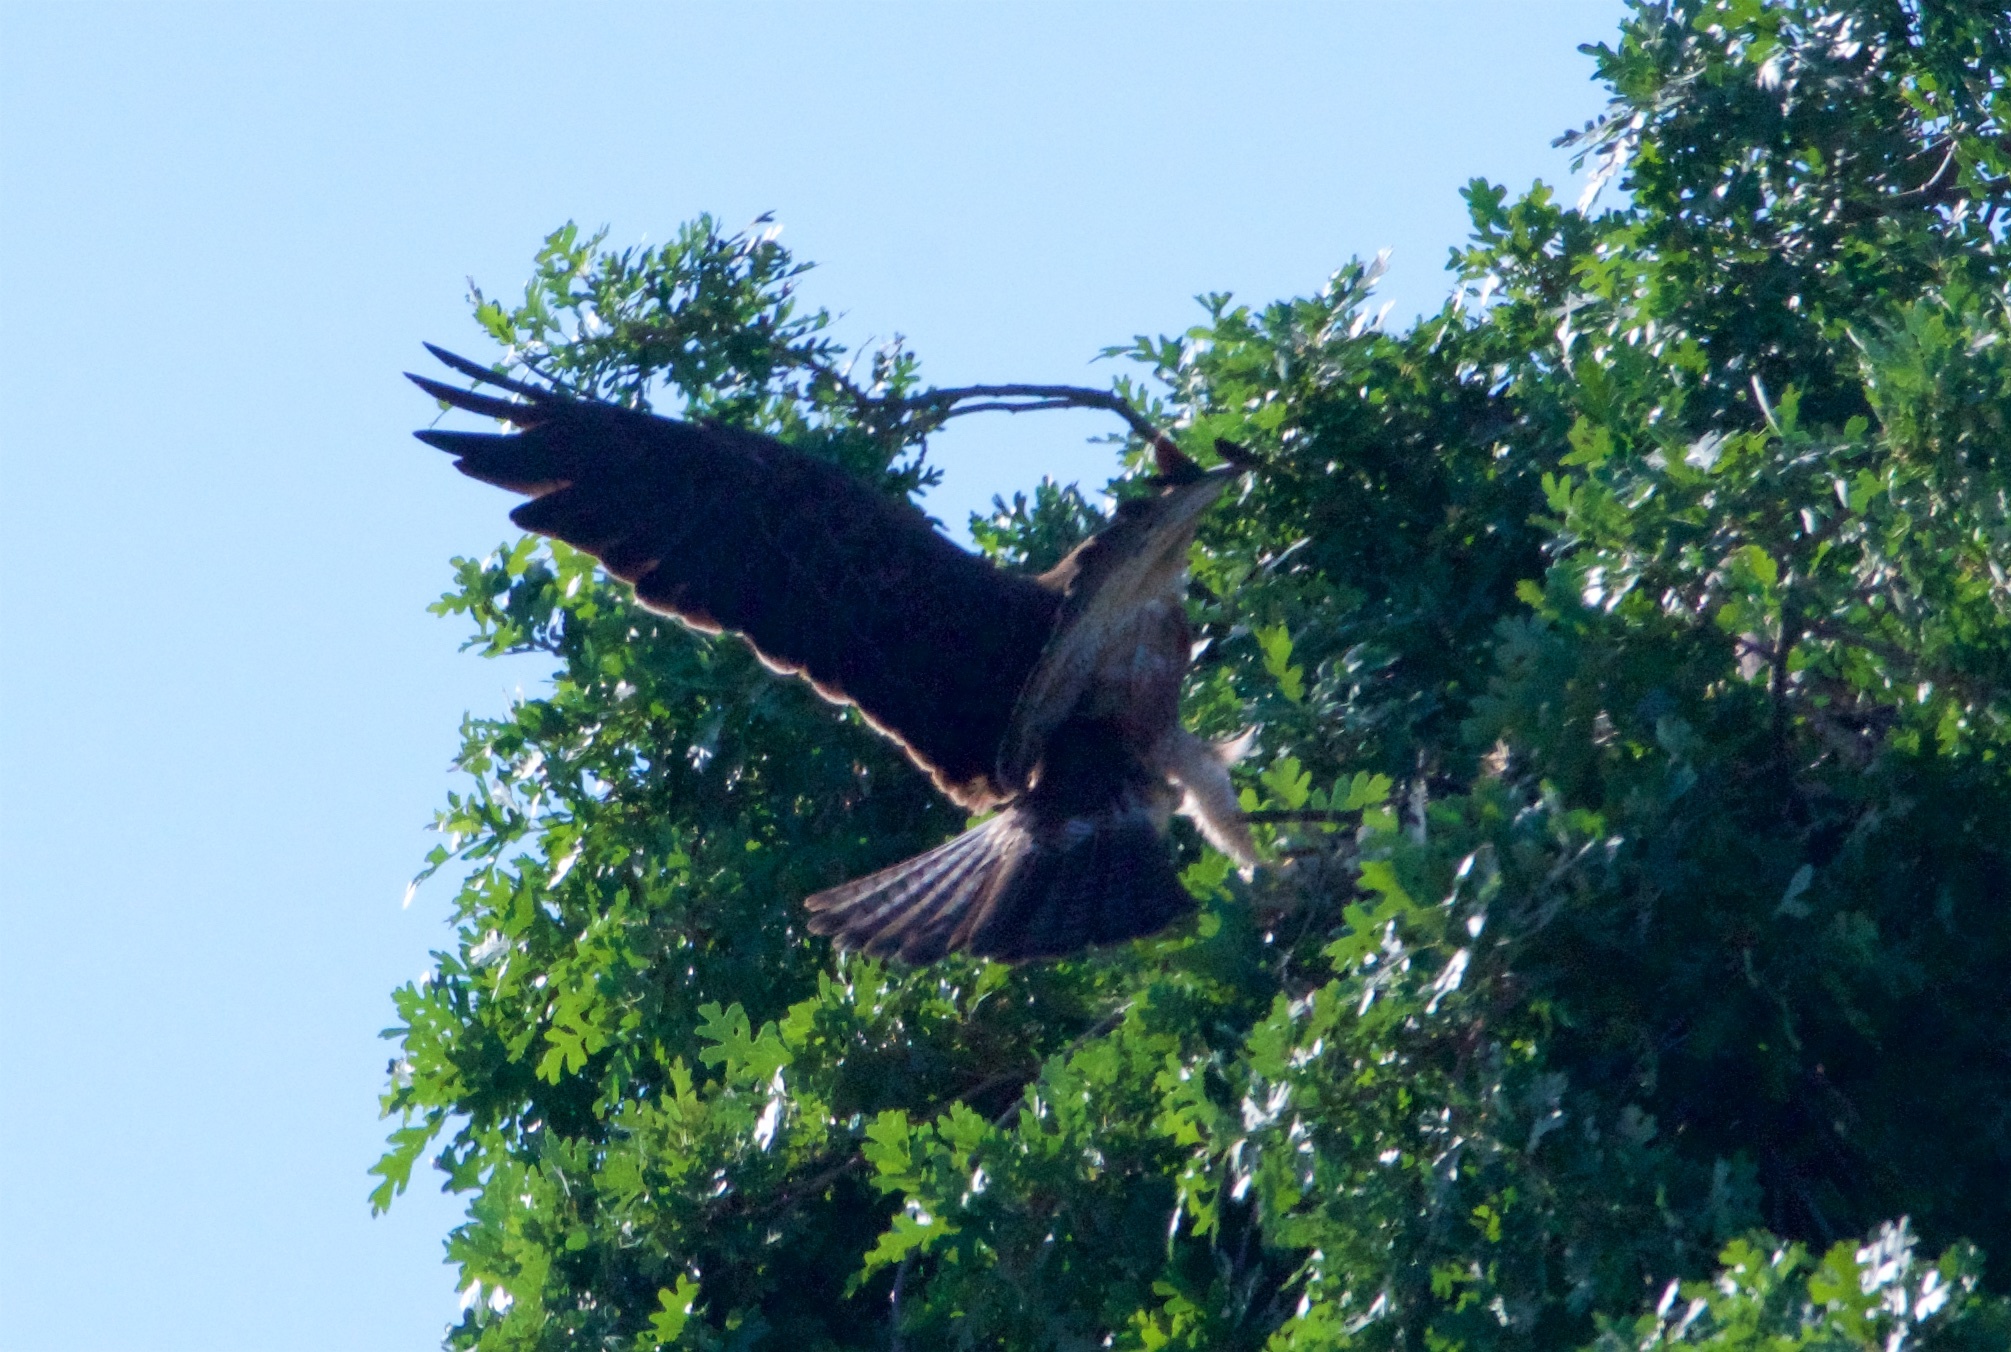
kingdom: Animalia
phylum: Chordata
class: Aves
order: Accipitriformes
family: Accipitridae
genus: Buteo
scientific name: Buteo swainsoni
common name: Swainson's hawk
